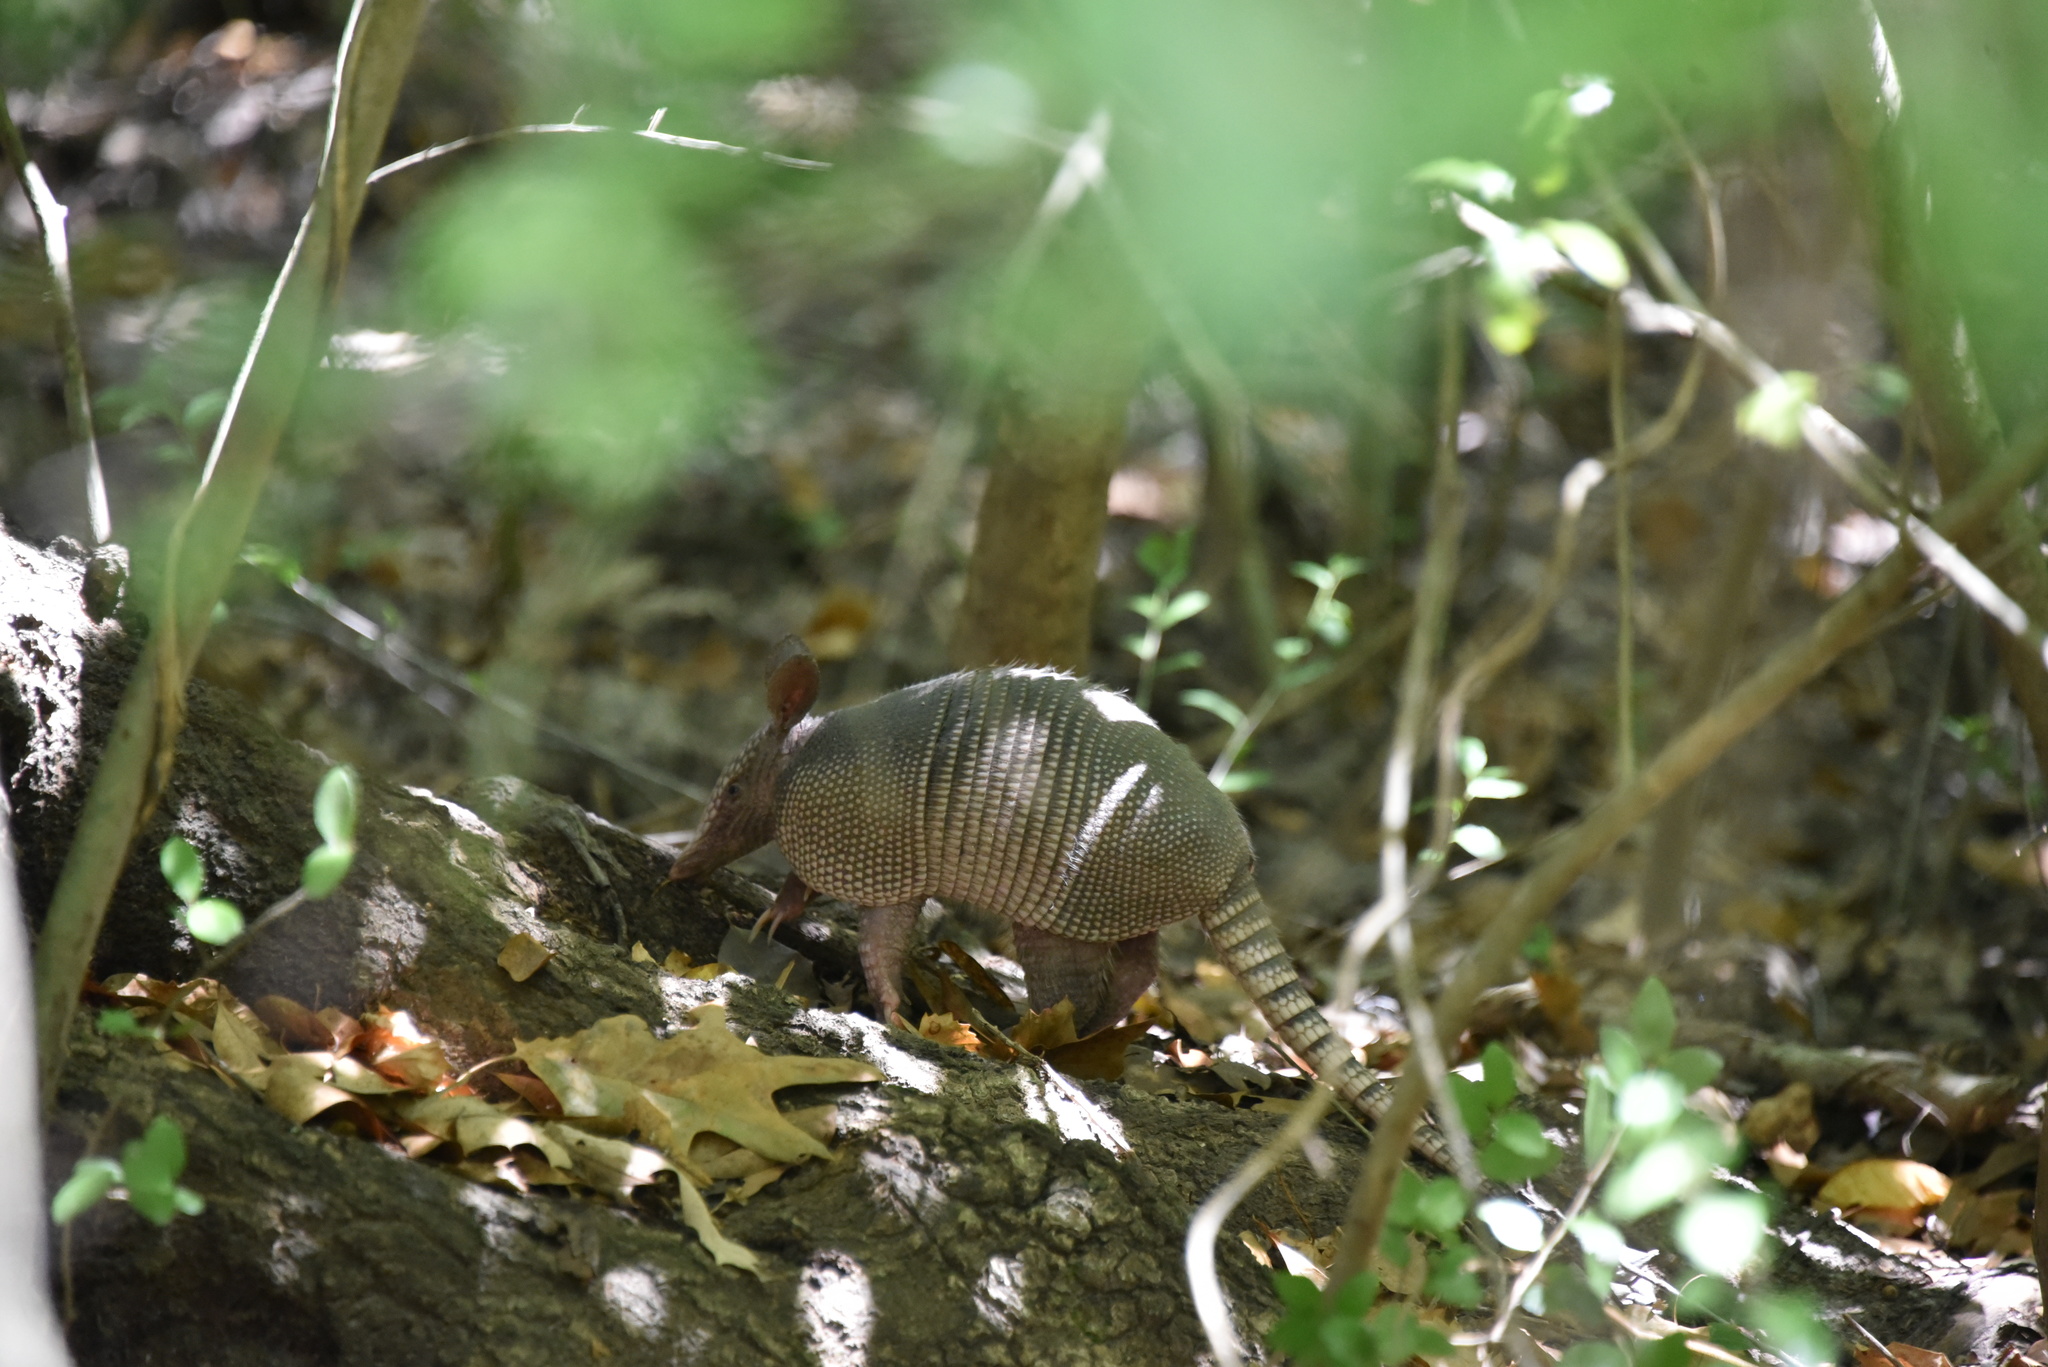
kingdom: Animalia
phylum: Chordata
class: Mammalia
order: Cingulata
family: Dasypodidae
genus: Dasypus
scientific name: Dasypus novemcinctus
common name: Nine-banded armadillo
